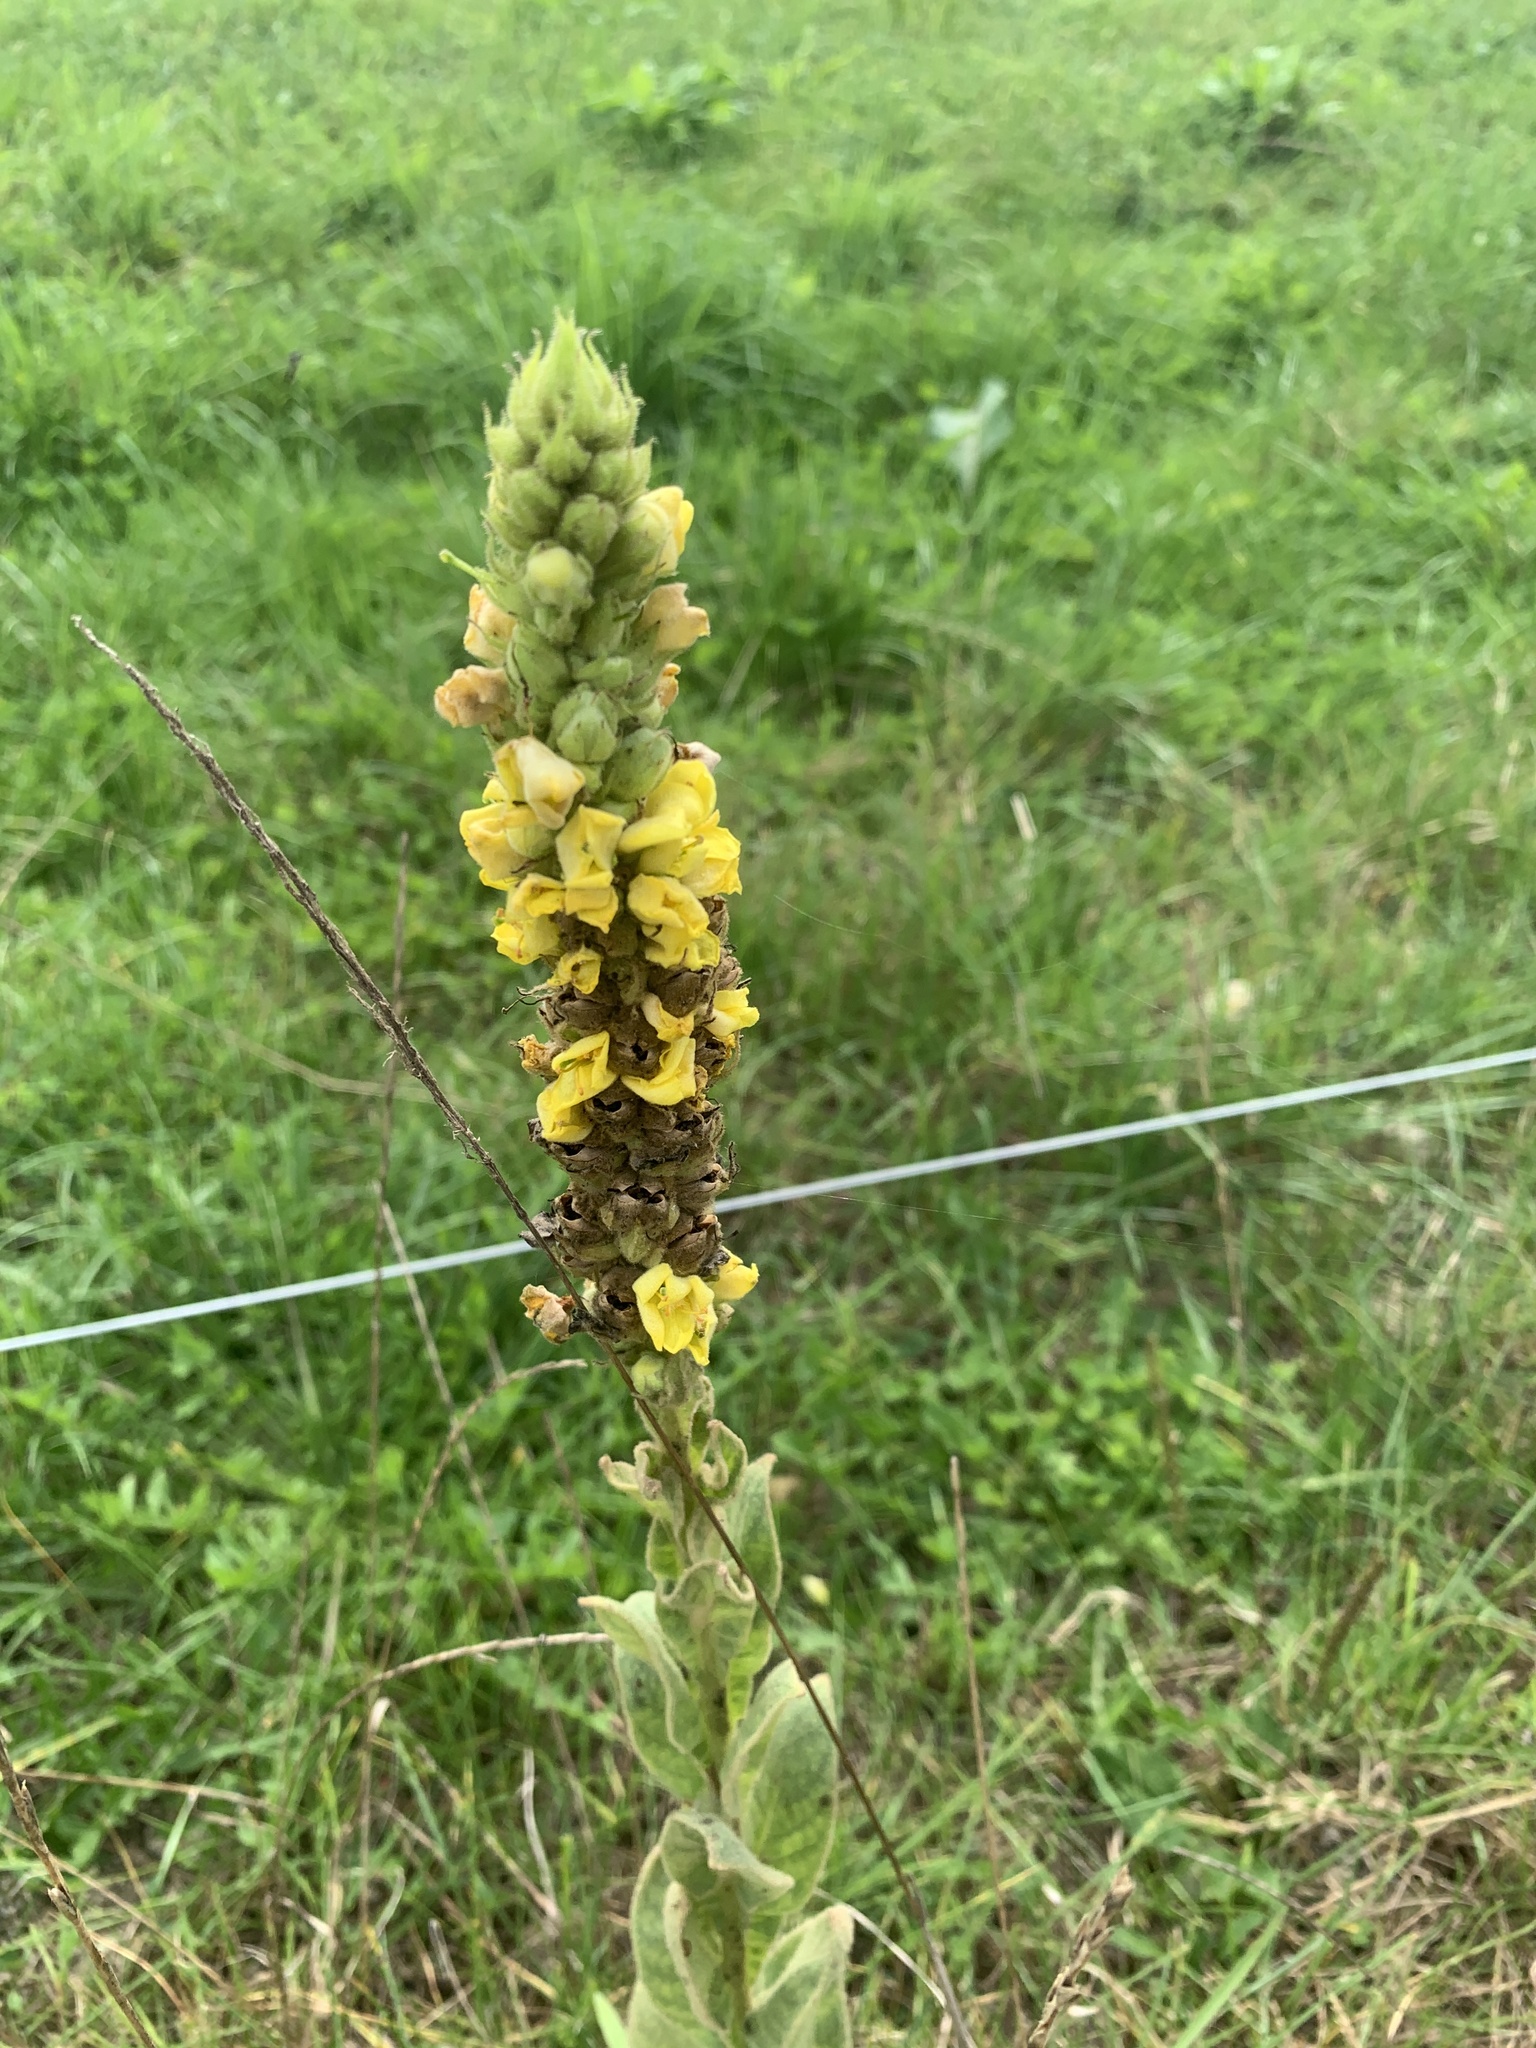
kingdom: Plantae
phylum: Tracheophyta
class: Magnoliopsida
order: Lamiales
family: Scrophulariaceae
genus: Verbascum
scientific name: Verbascum thapsus
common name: Common mullein
